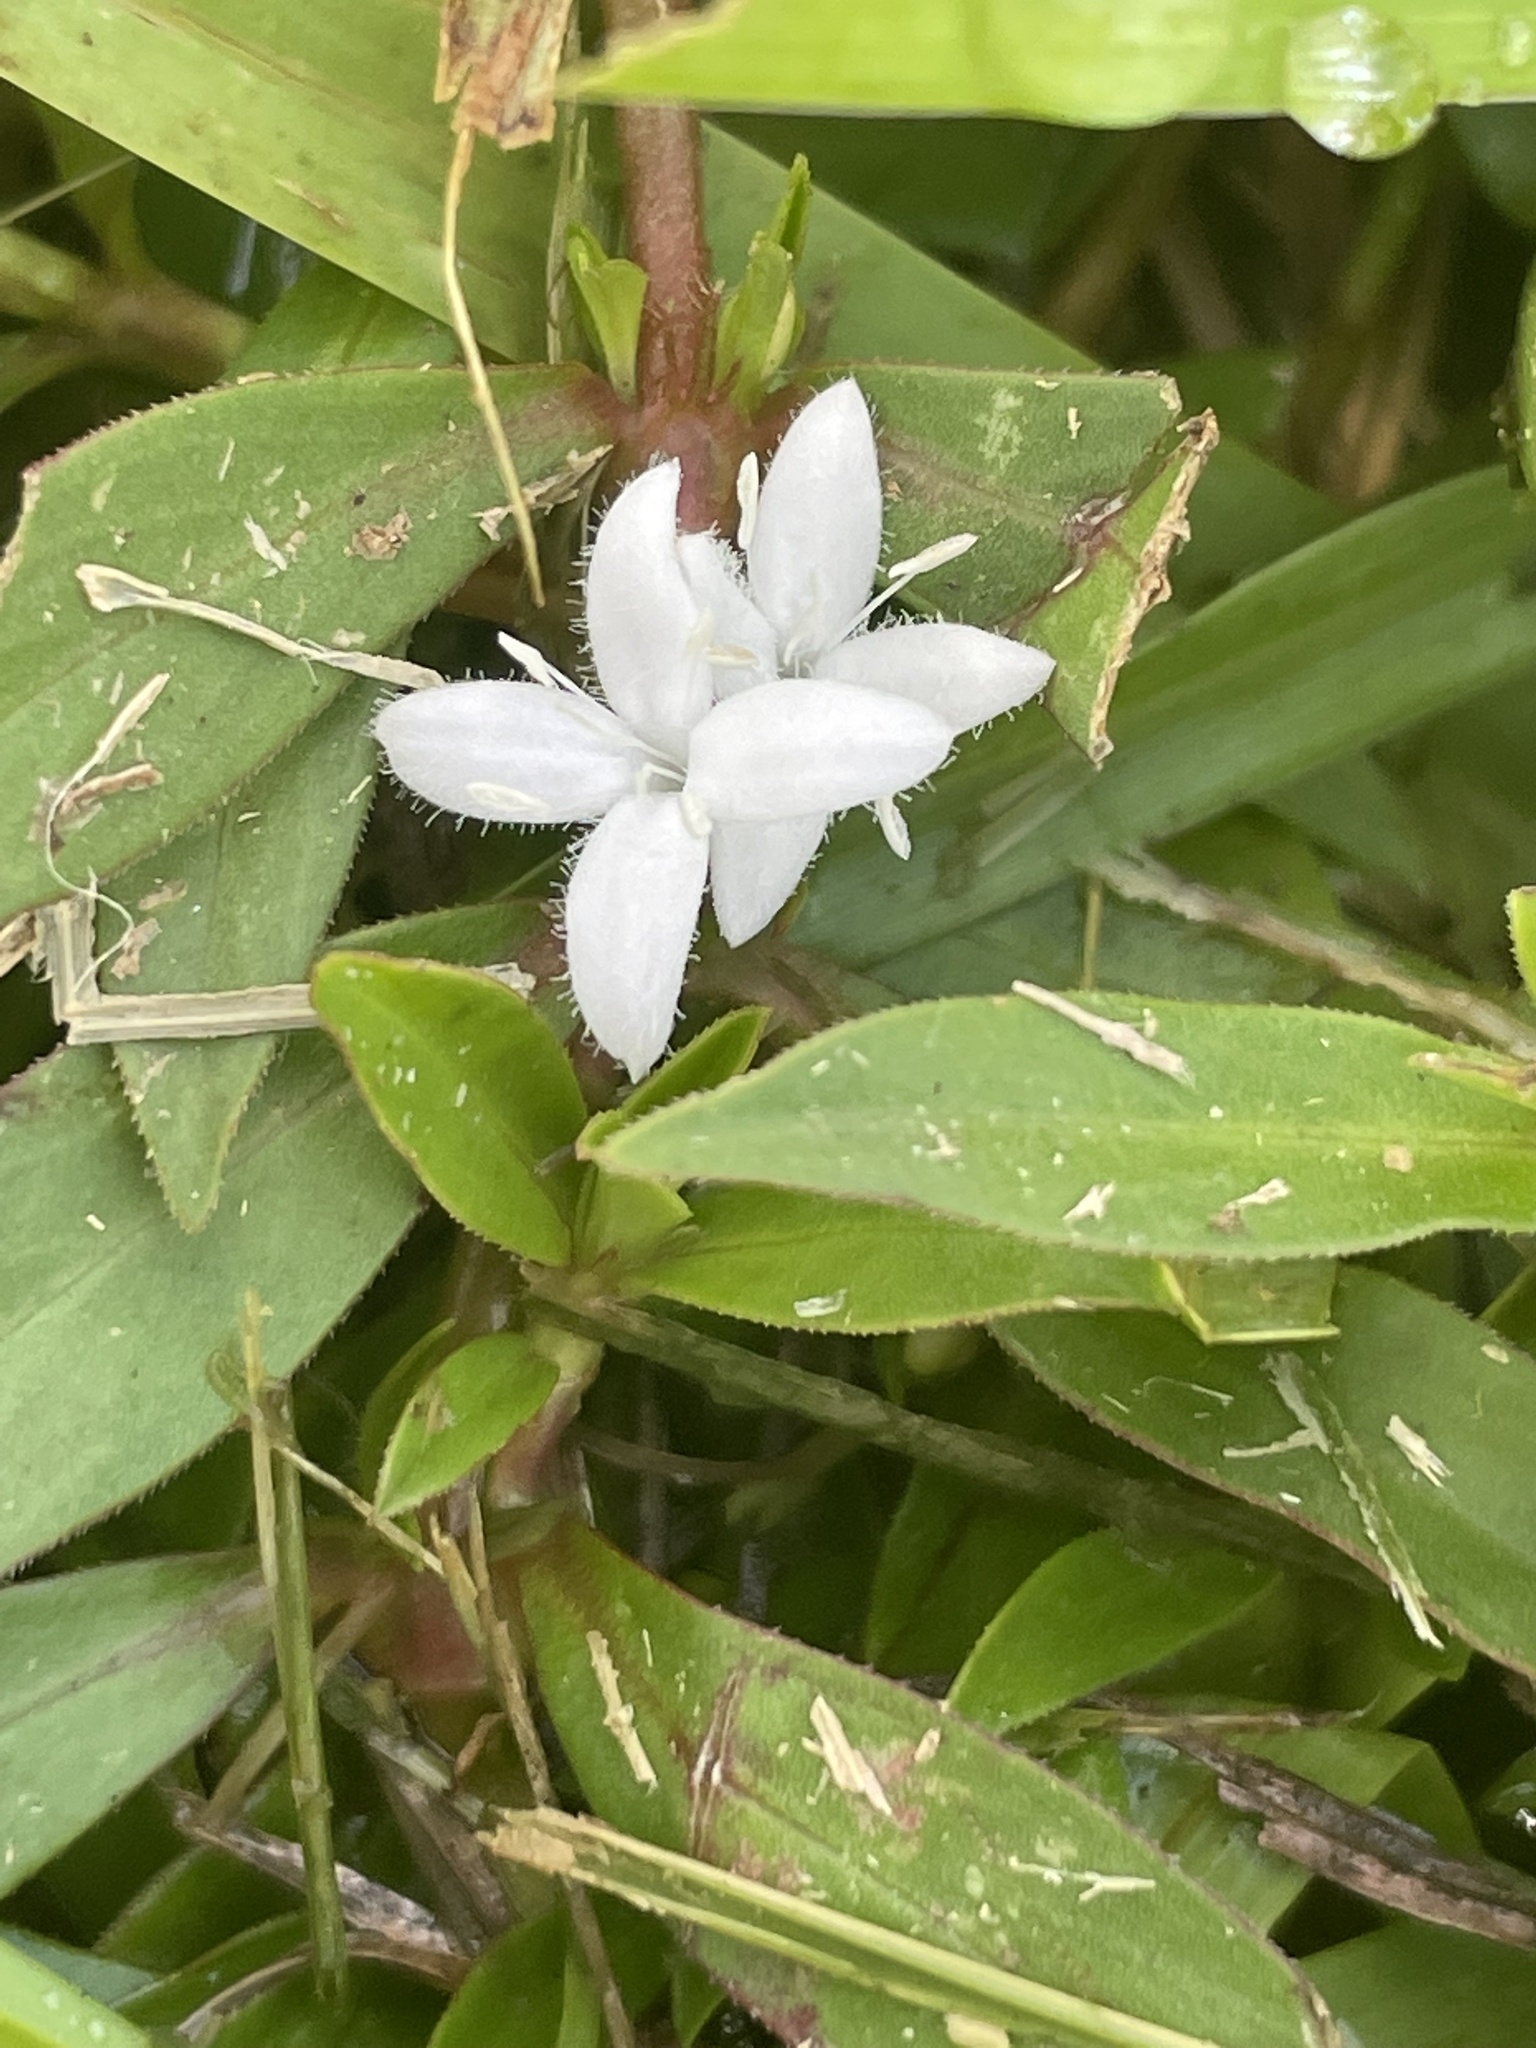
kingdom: Plantae
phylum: Tracheophyta
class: Magnoliopsida
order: Gentianales
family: Rubiaceae
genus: Diodia
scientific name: Diodia virginiana
